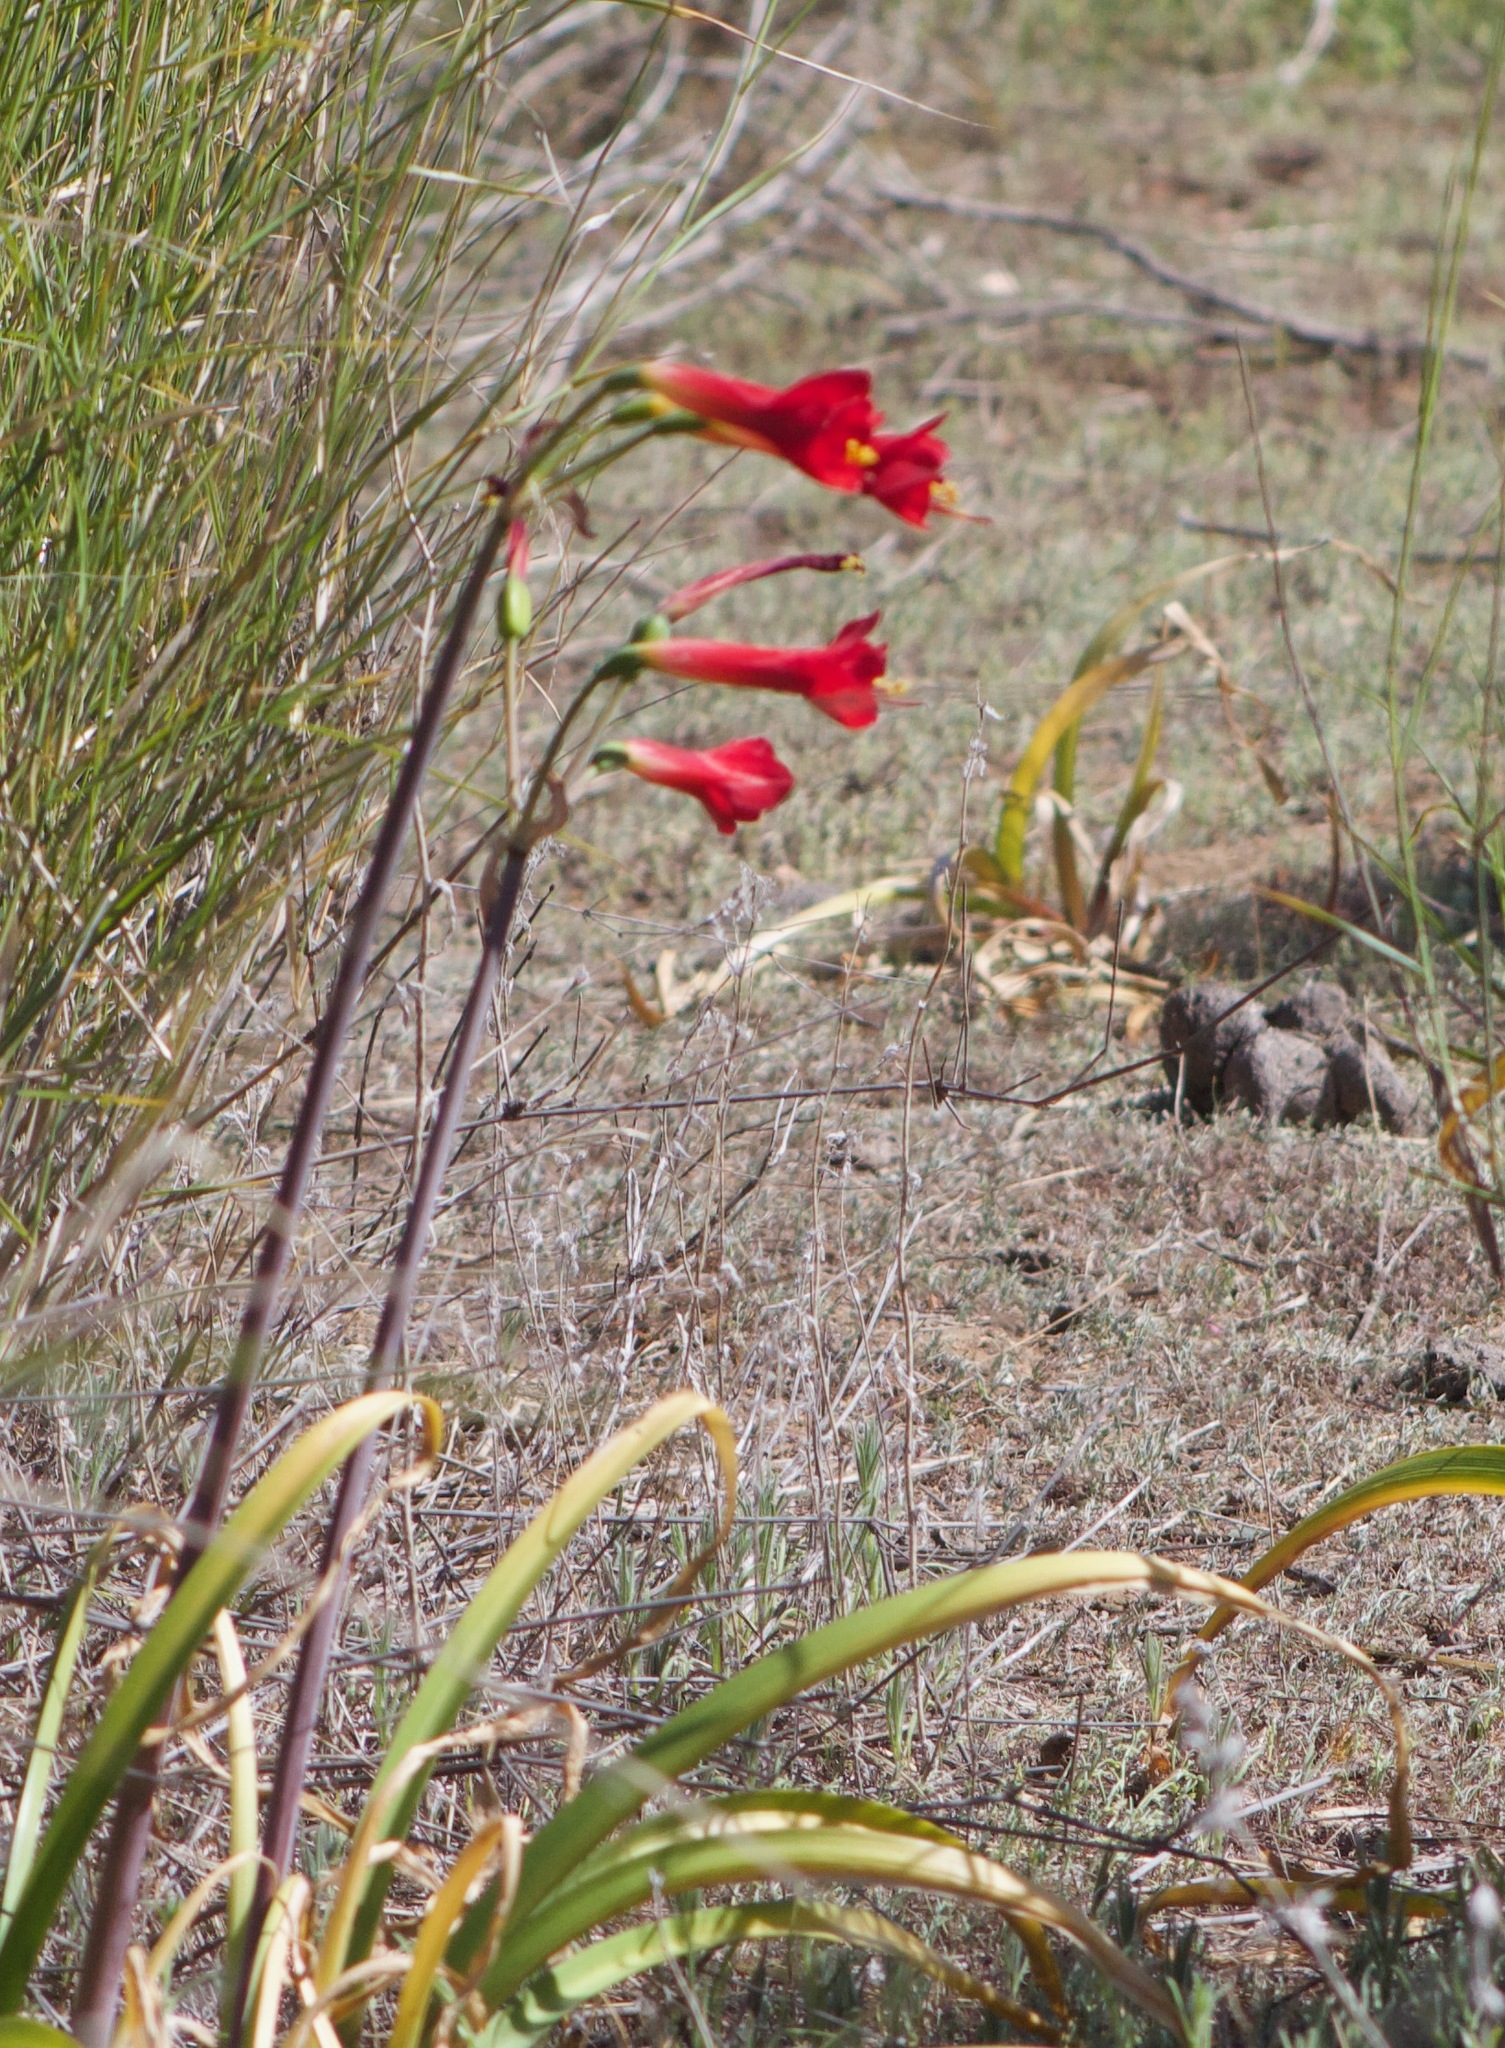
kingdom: Plantae
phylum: Tracheophyta
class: Liliopsida
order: Asparagales
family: Amaryllidaceae
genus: Phycella
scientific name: Phycella cyrtanthoides
